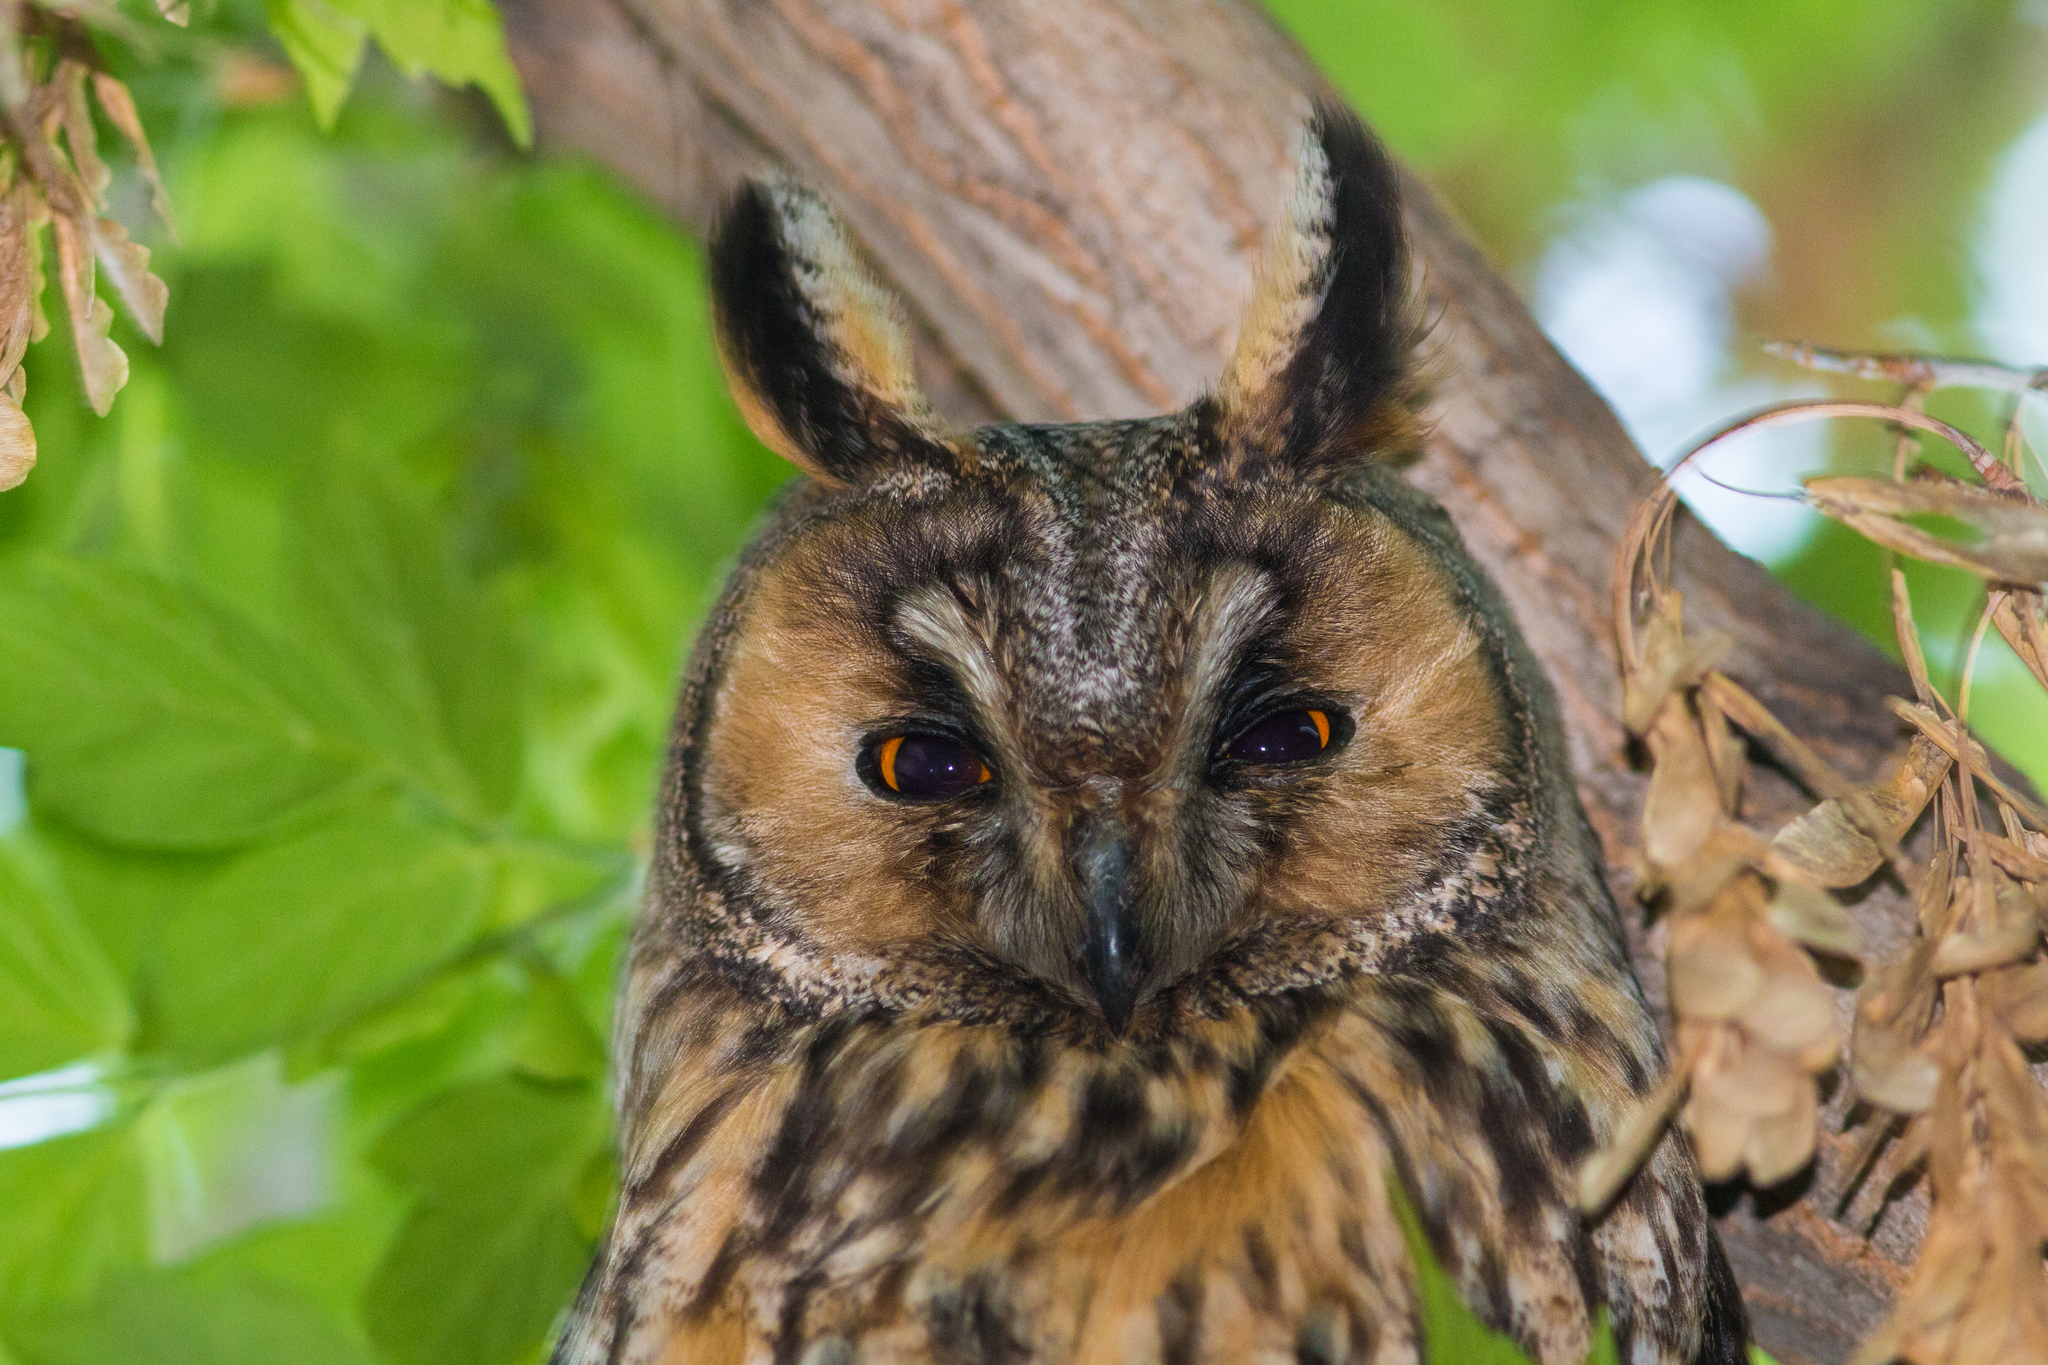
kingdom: Animalia
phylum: Chordata
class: Aves
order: Strigiformes
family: Strigidae
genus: Asio
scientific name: Asio otus
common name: Long-eared owl
